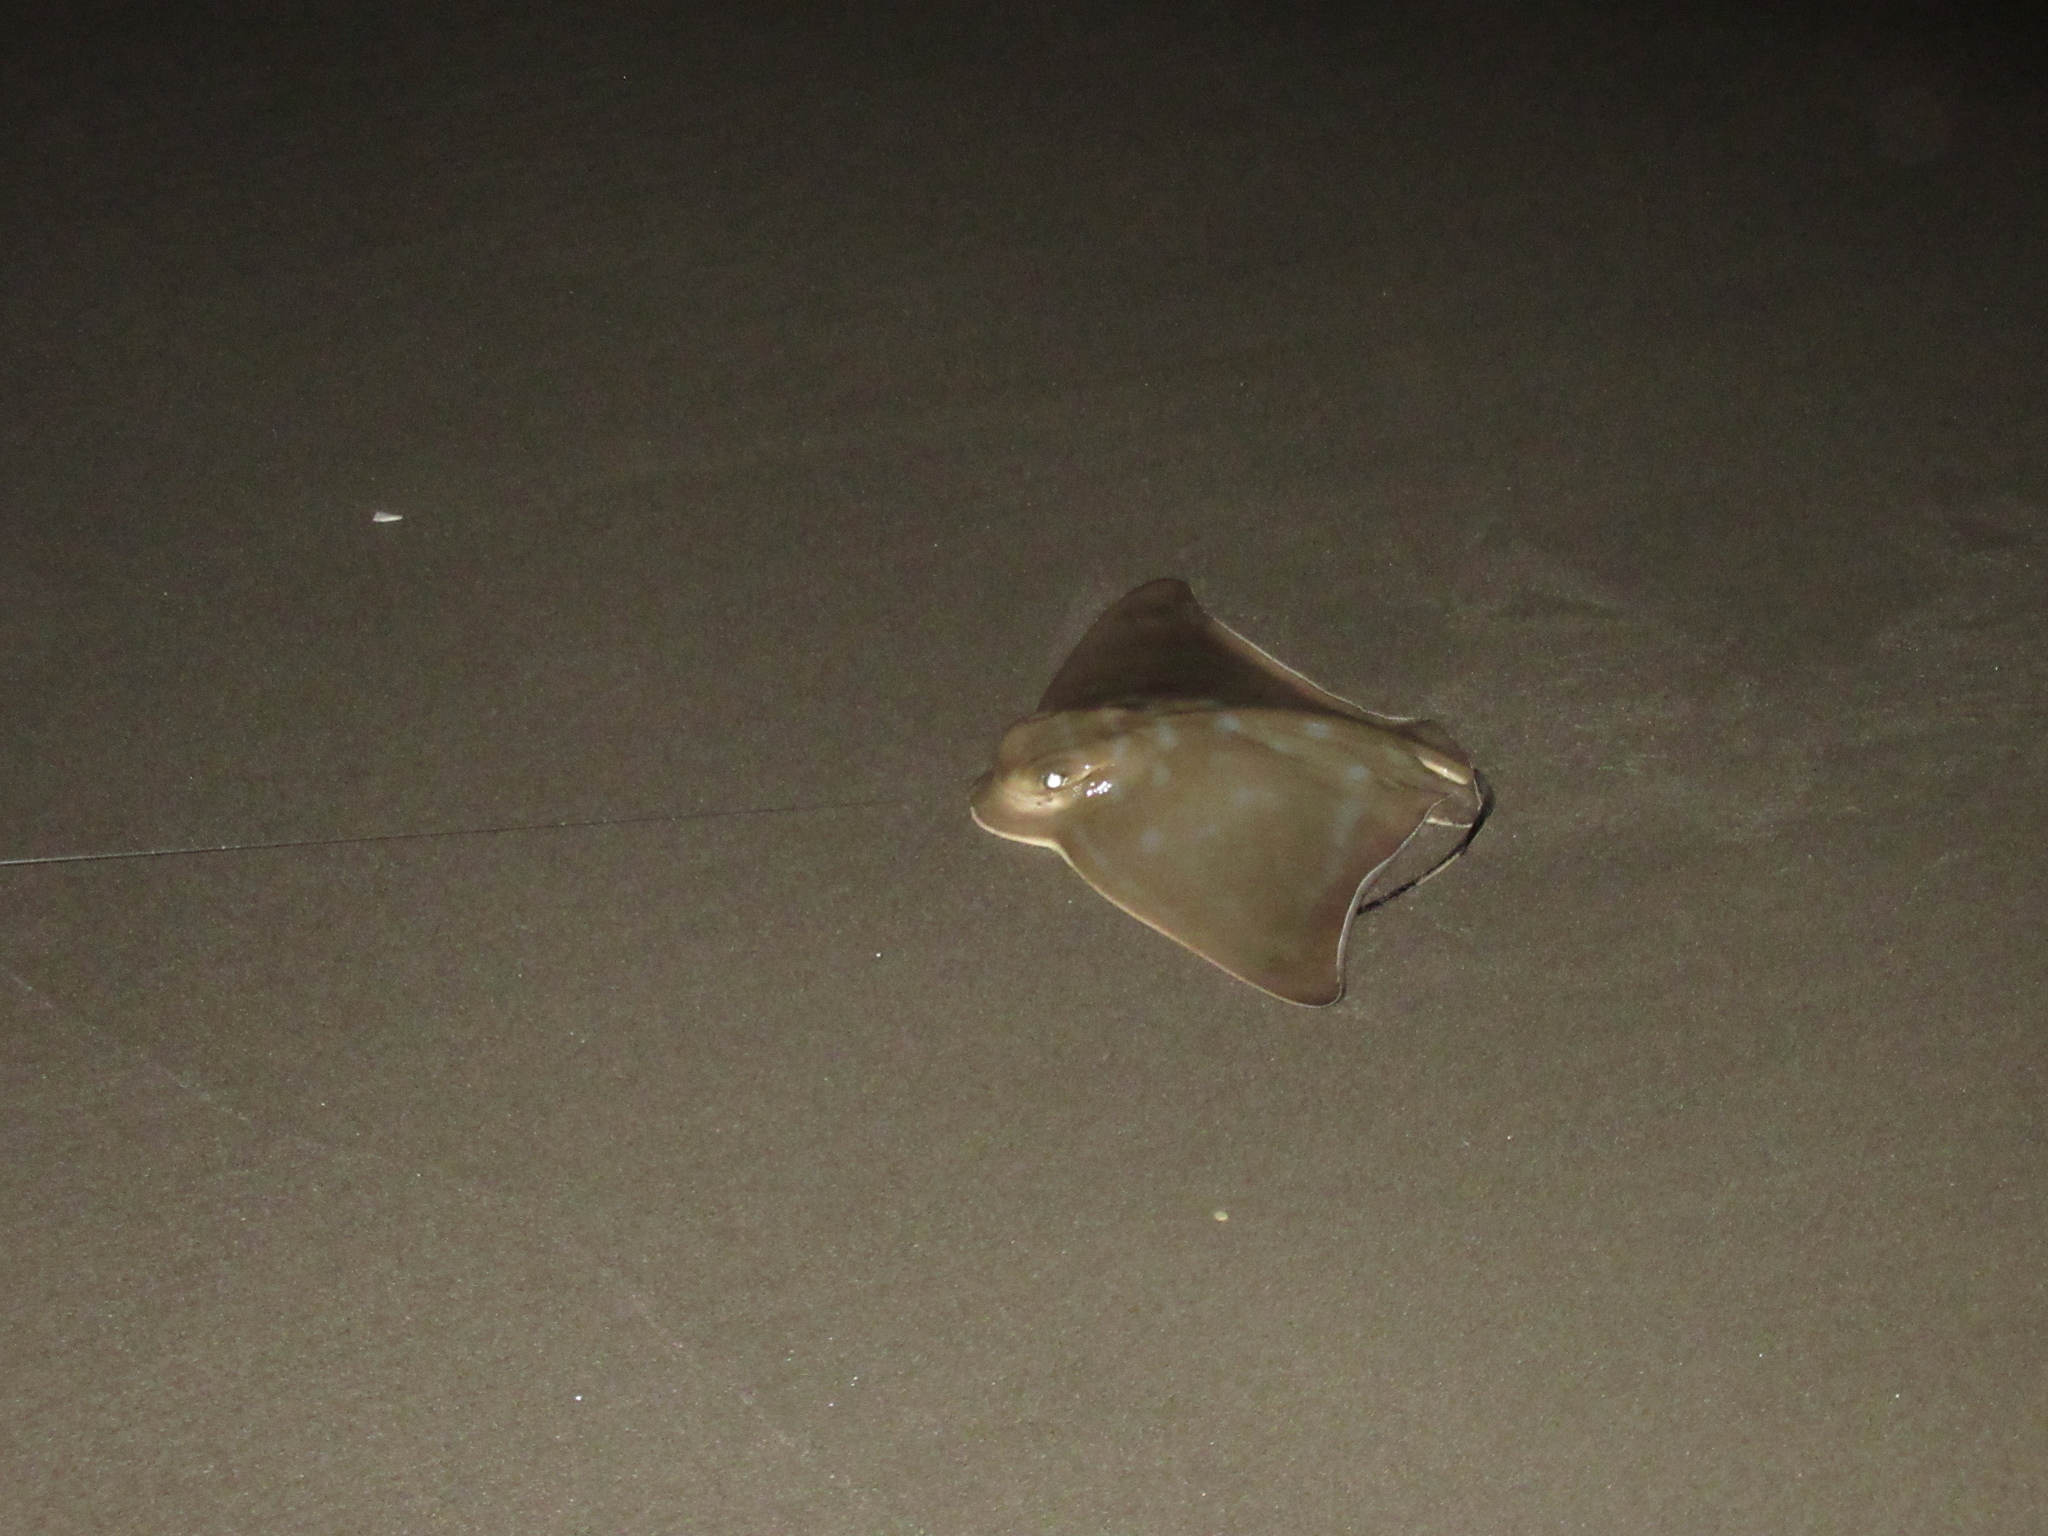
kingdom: Animalia
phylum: Chordata
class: Elasmobranchii
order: Myliobatiformes
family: Myliobatidae
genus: Myliobatis
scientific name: Myliobatis tenuicaudatus
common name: Eagle ray
